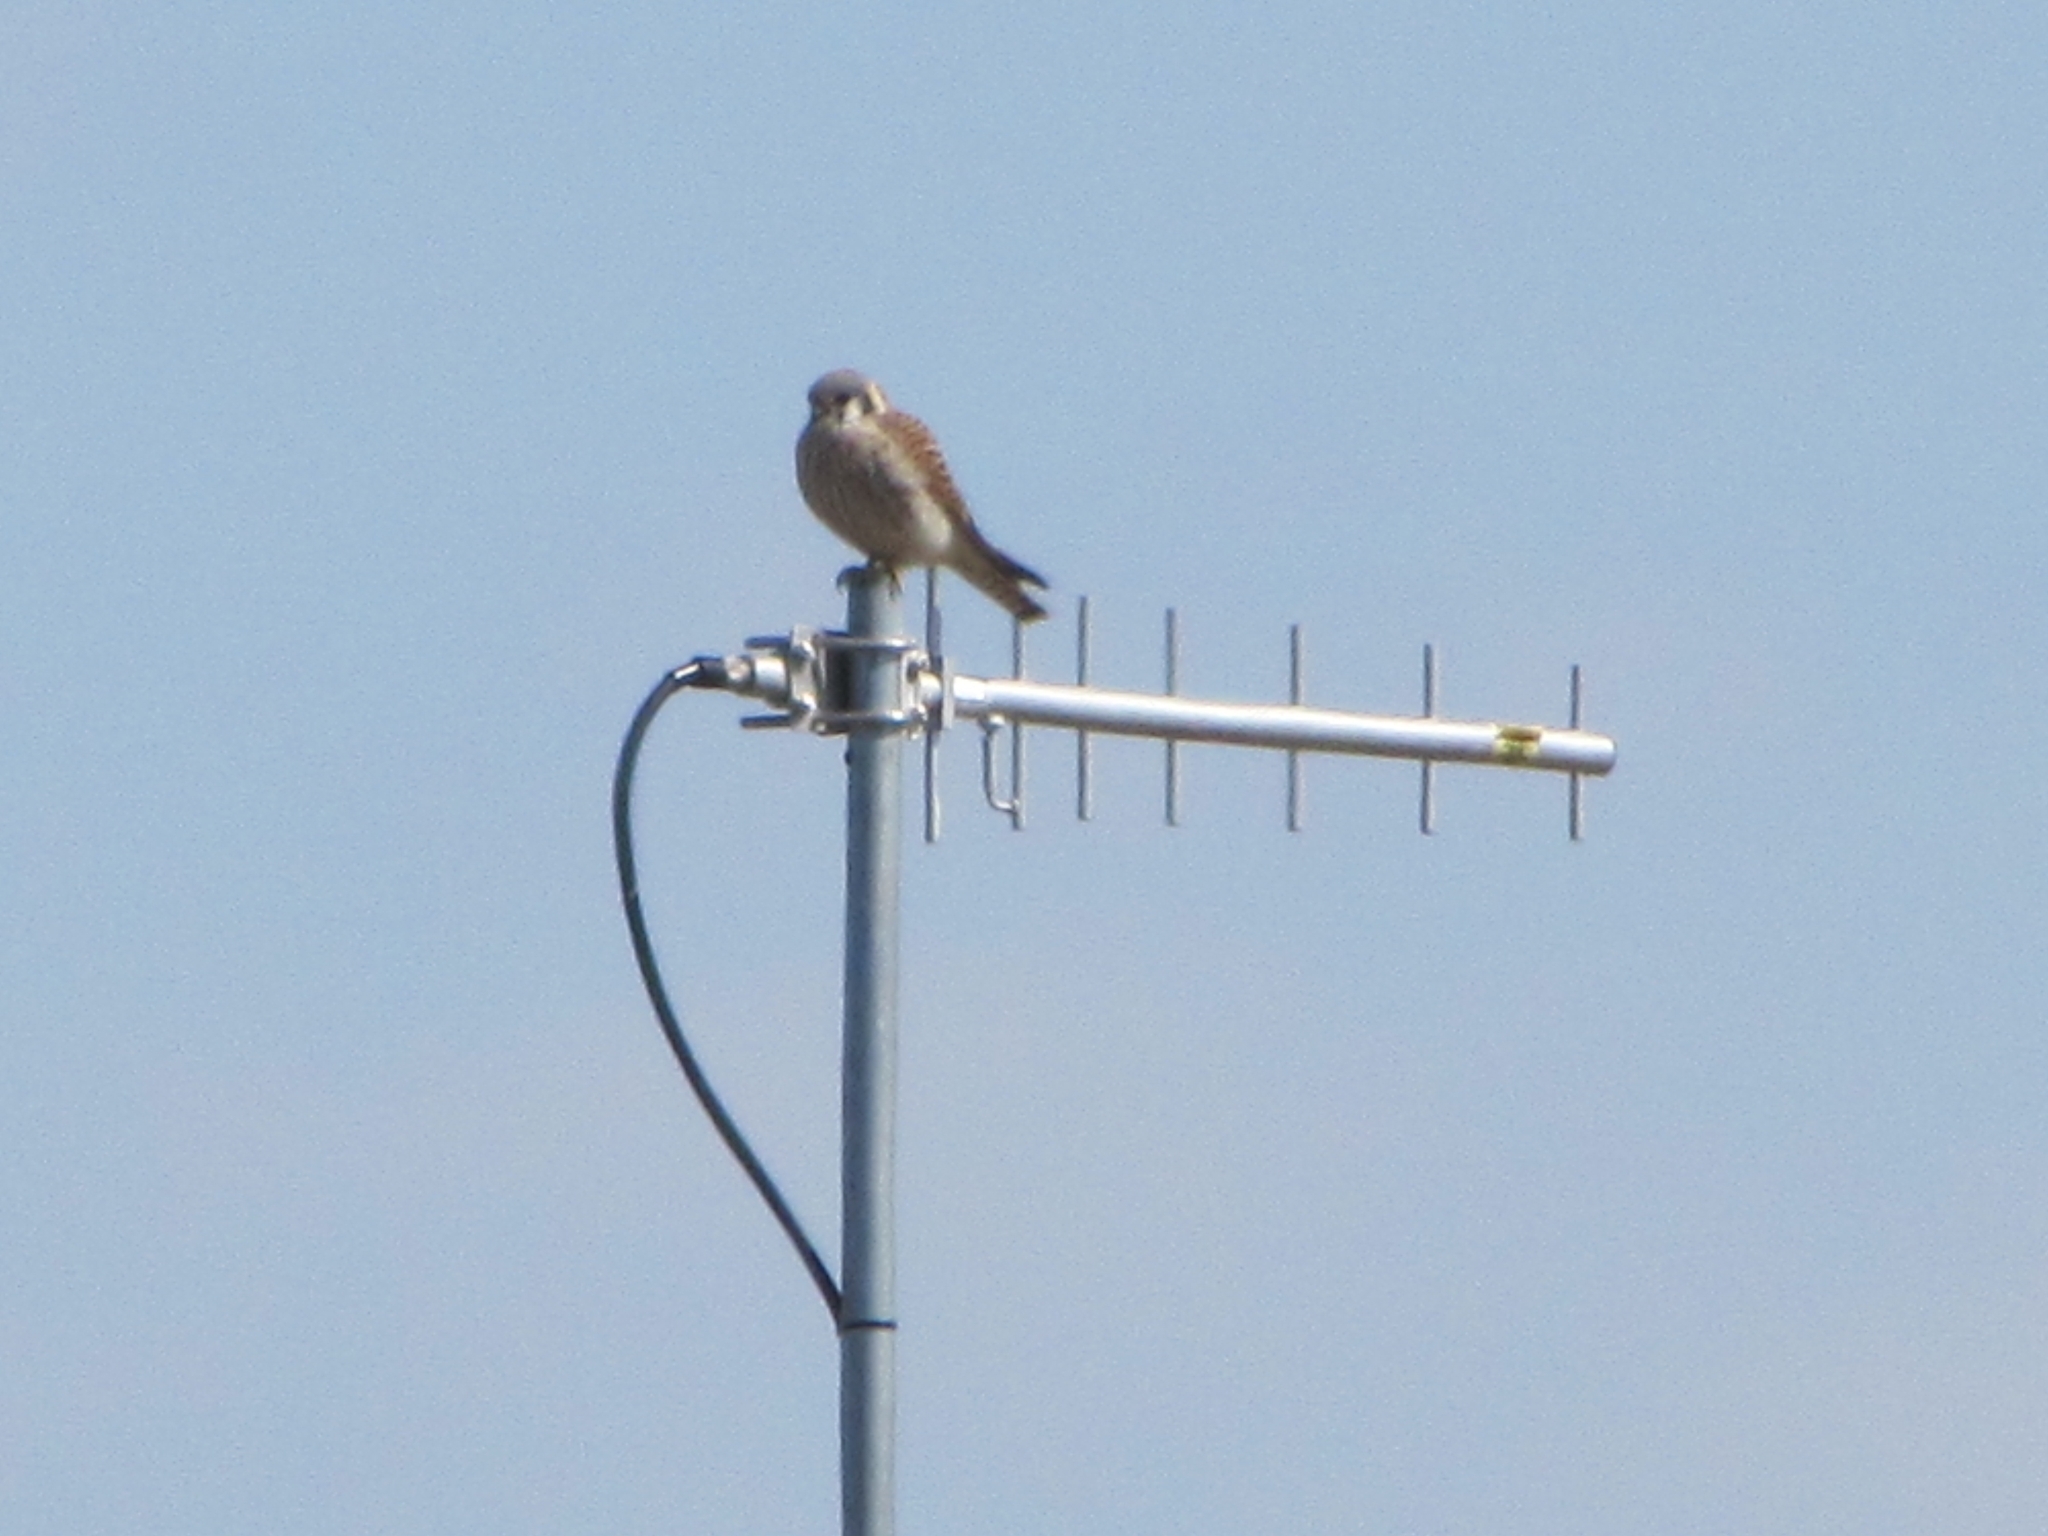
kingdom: Animalia
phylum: Chordata
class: Aves
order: Falconiformes
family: Falconidae
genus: Falco
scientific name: Falco sparverius
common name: American kestrel
